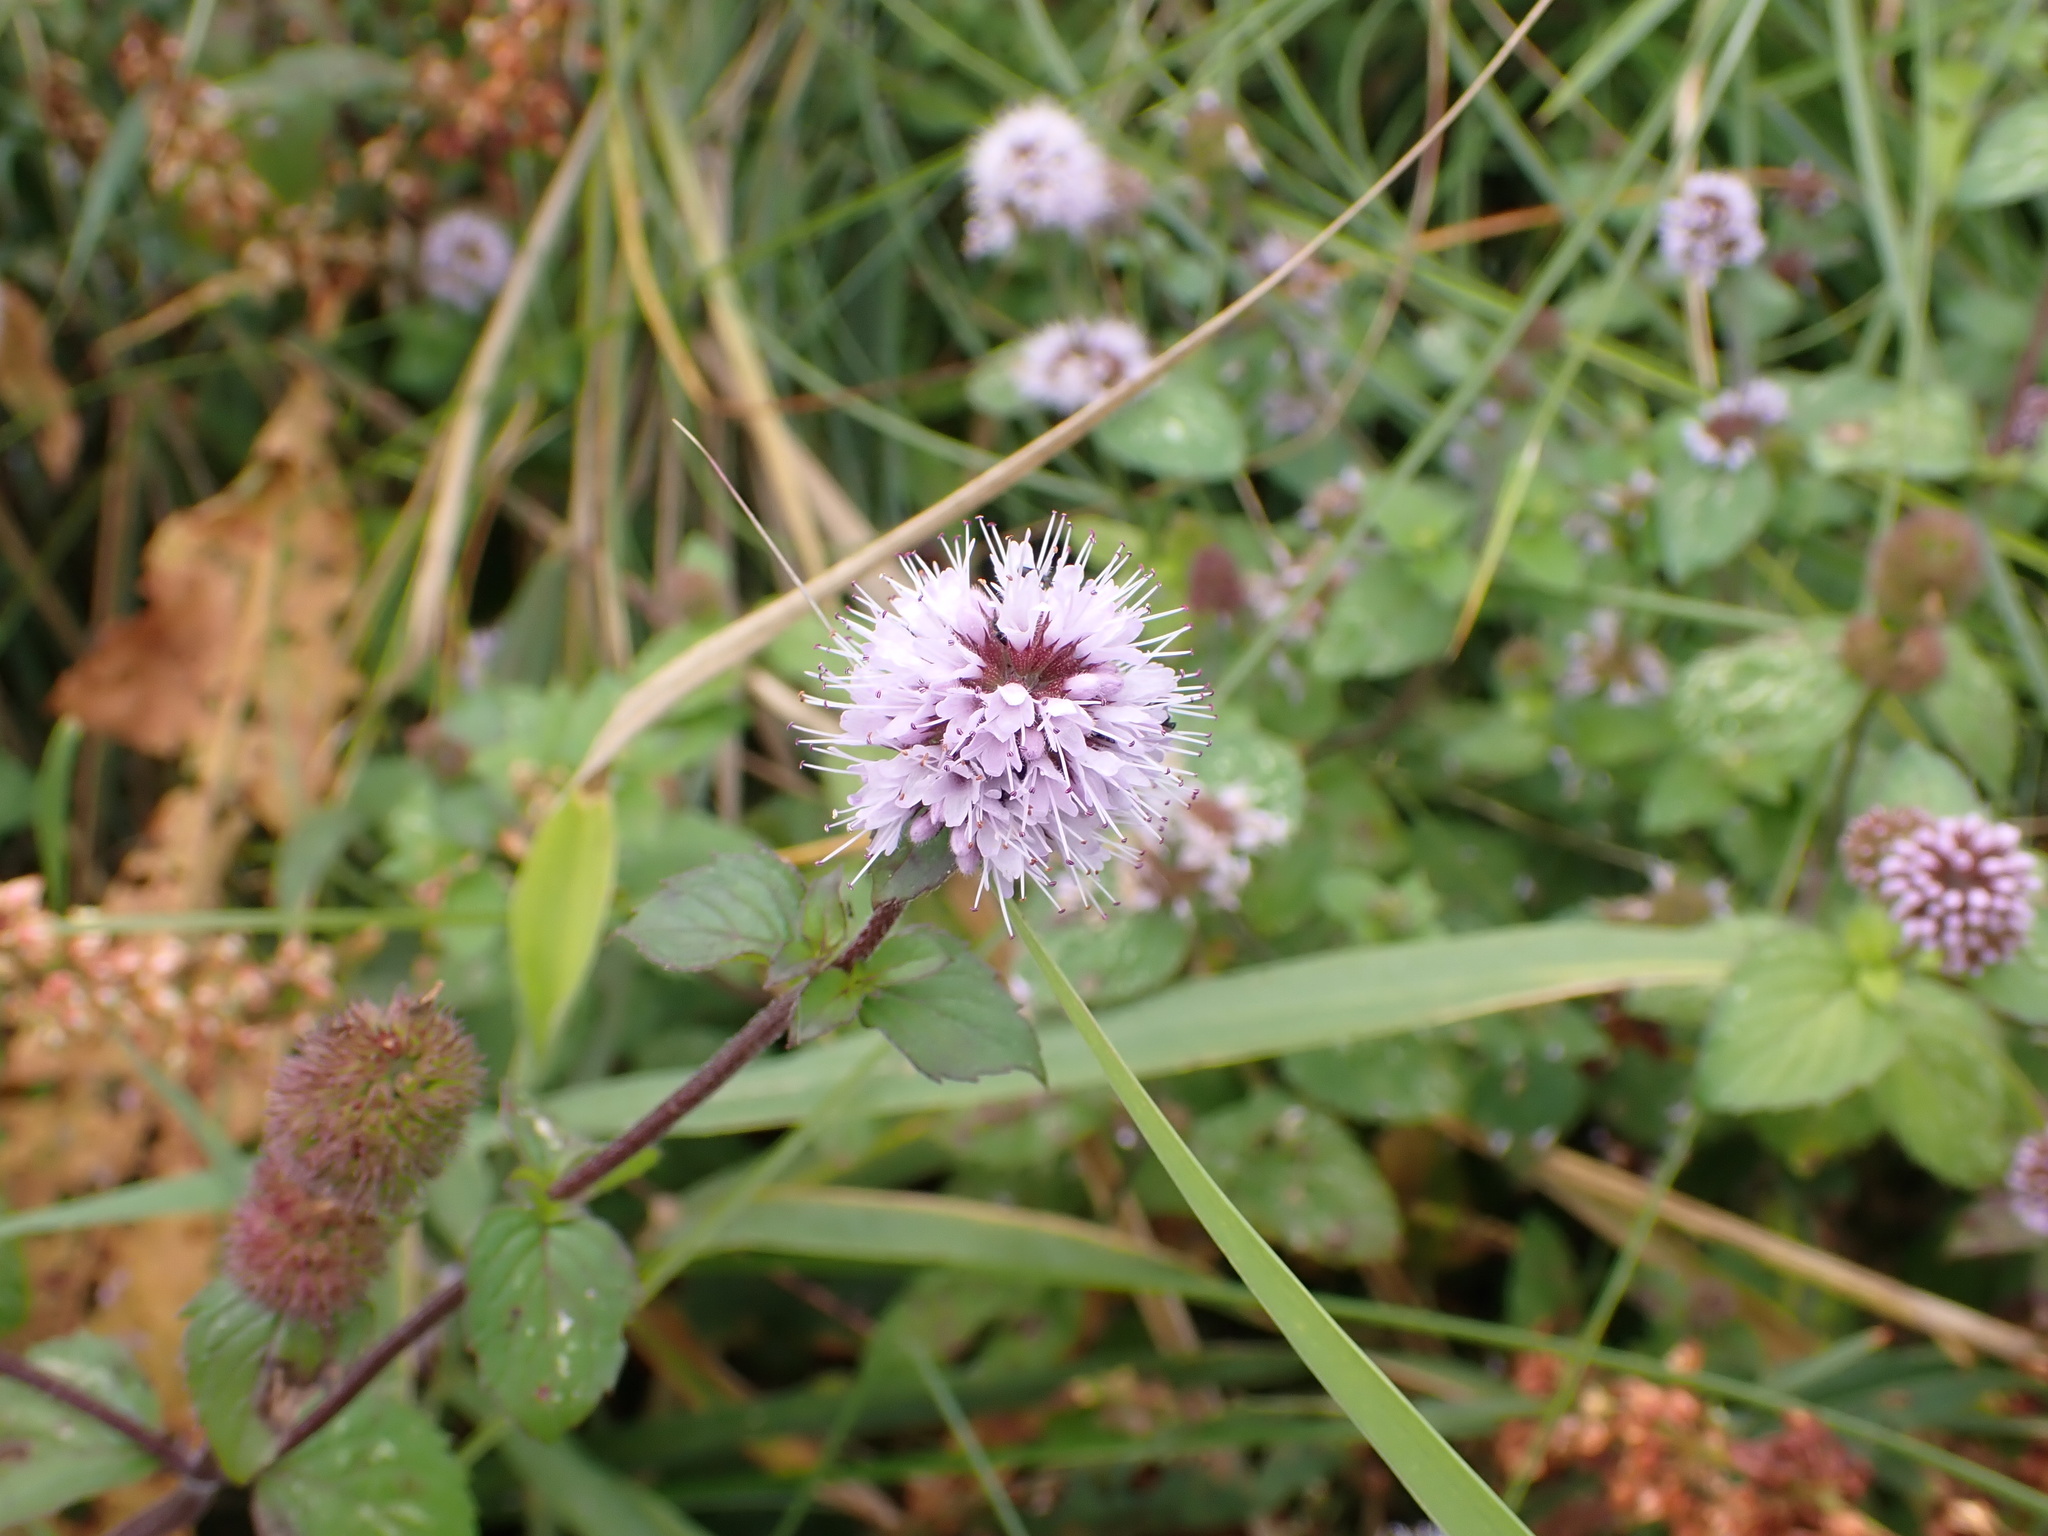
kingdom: Plantae
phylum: Tracheophyta
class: Magnoliopsida
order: Lamiales
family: Lamiaceae
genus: Mentha
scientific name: Mentha aquatica
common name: Water mint
